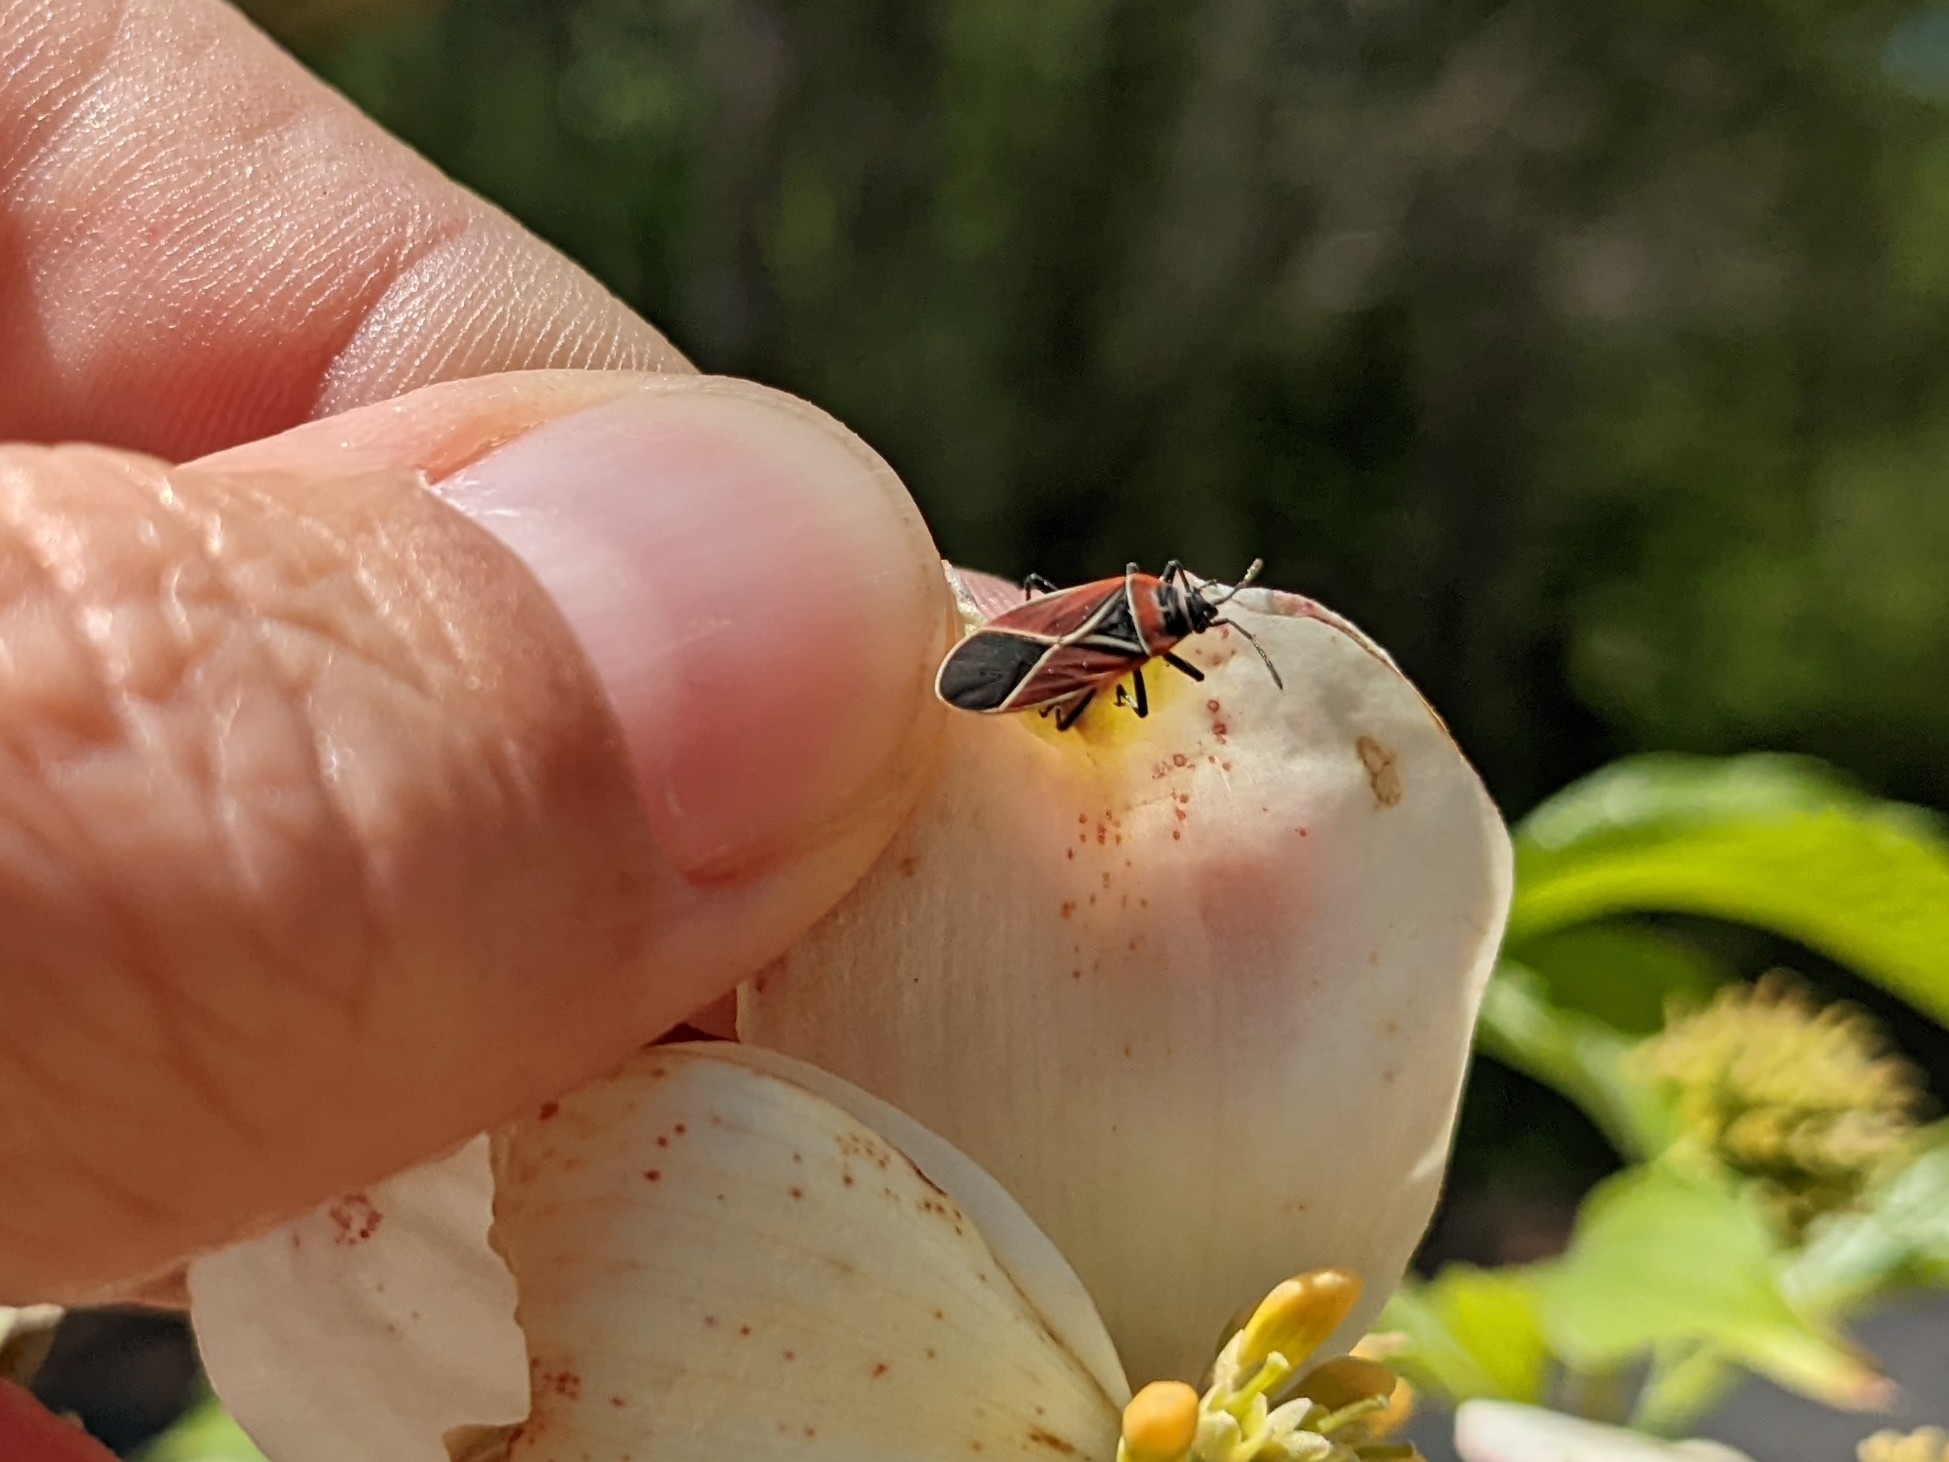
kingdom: Animalia
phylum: Arthropoda
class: Insecta
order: Hemiptera
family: Lygaeidae
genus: Neacoryphus
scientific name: Neacoryphus bicrucis
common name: Lygaeid bug
